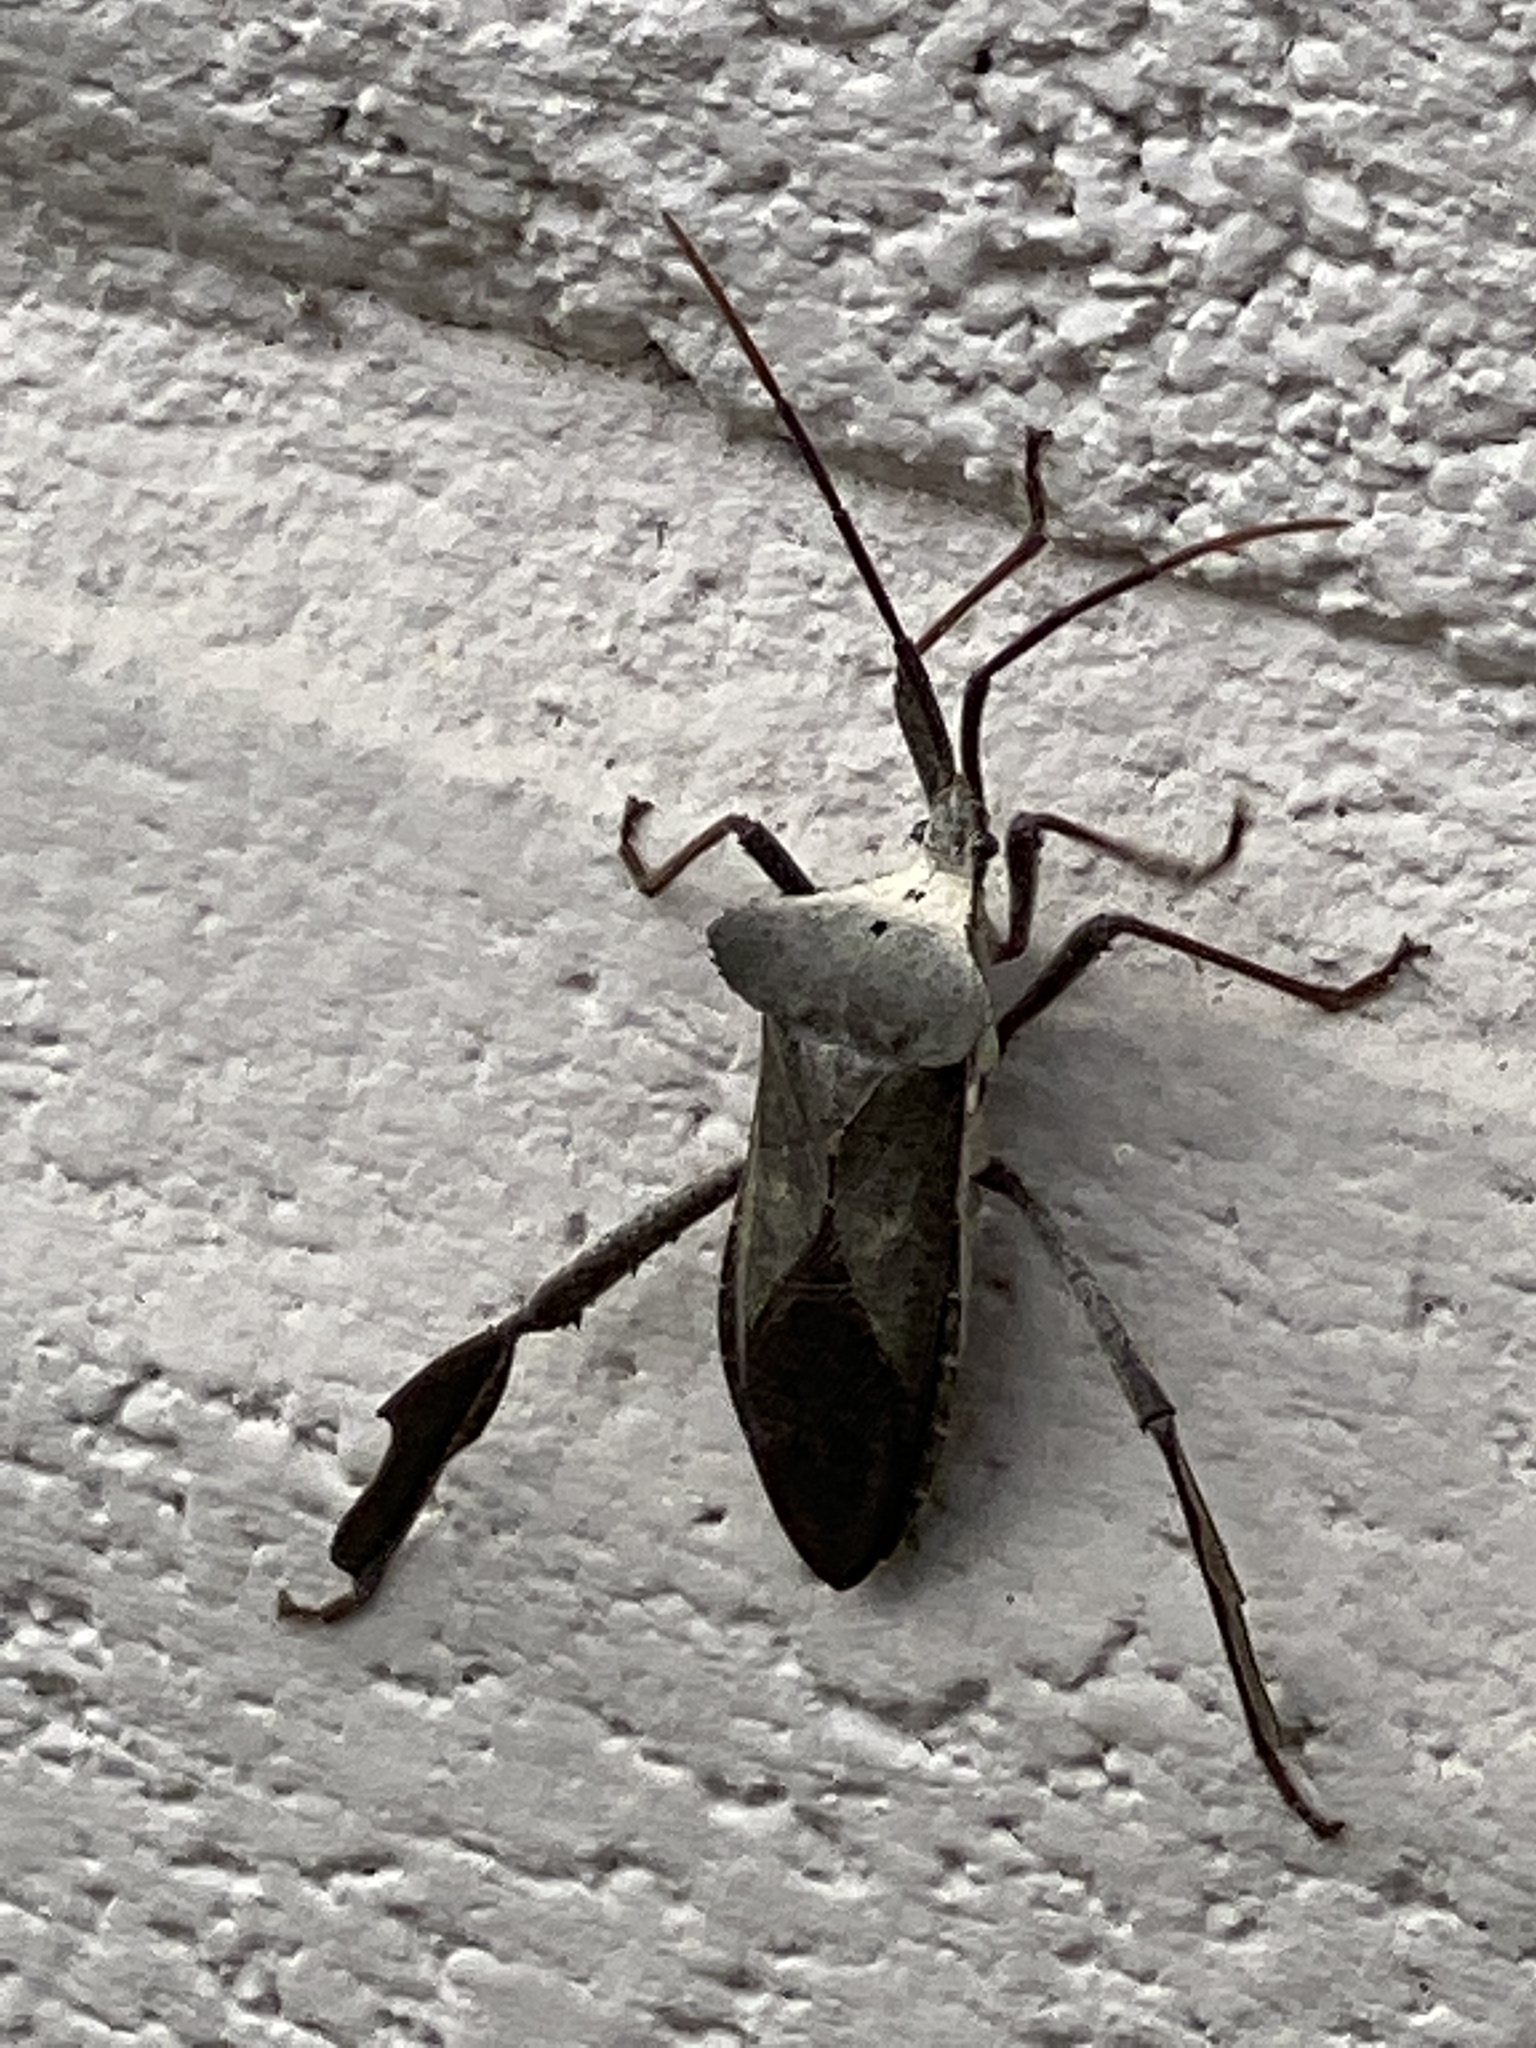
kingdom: Animalia
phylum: Arthropoda
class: Insecta
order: Hemiptera
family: Coreidae
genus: Acanthocephala
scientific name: Acanthocephala declivis
